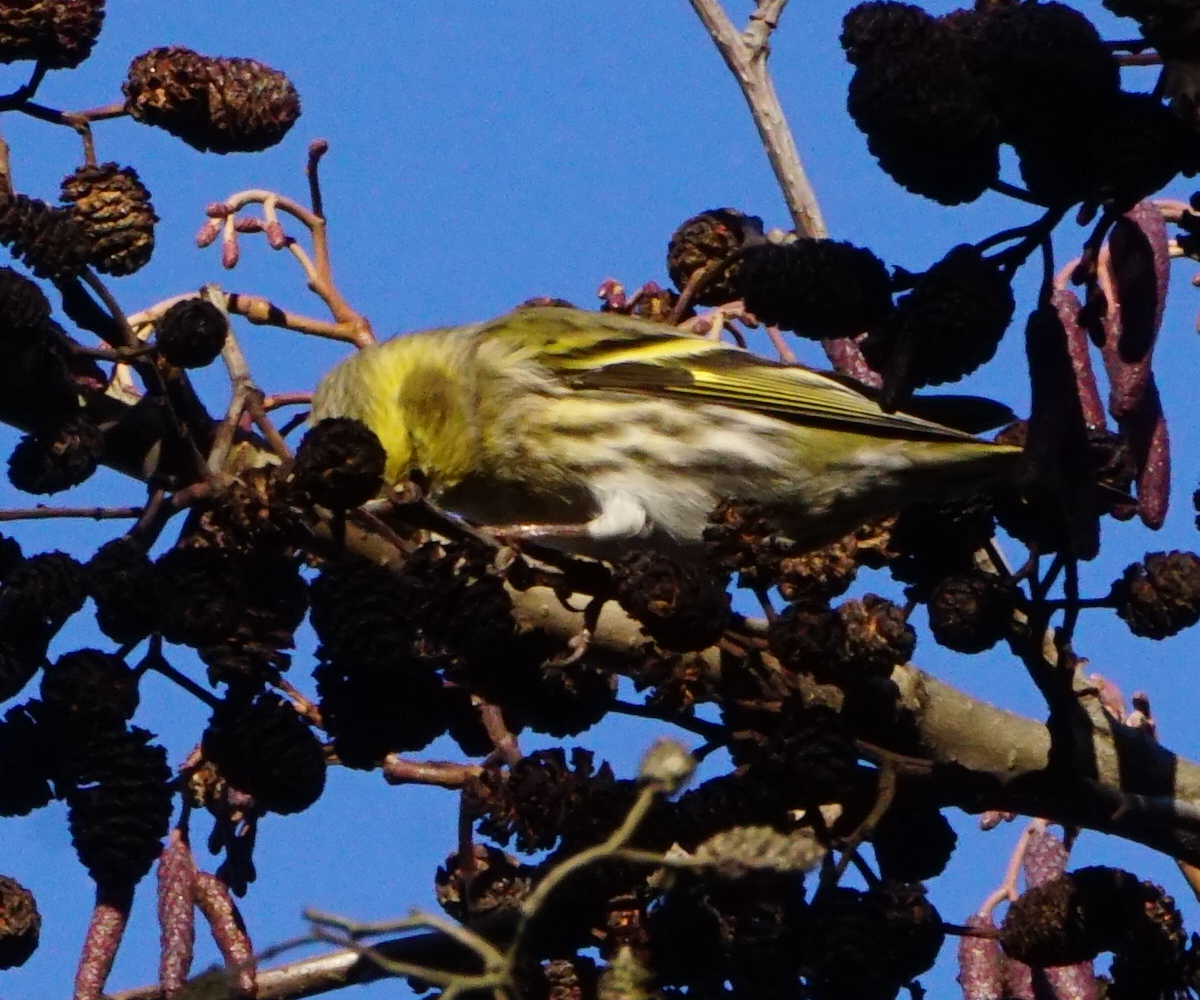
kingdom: Animalia
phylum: Chordata
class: Aves
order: Passeriformes
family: Fringillidae
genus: Spinus
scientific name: Spinus spinus
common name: Eurasian siskin
